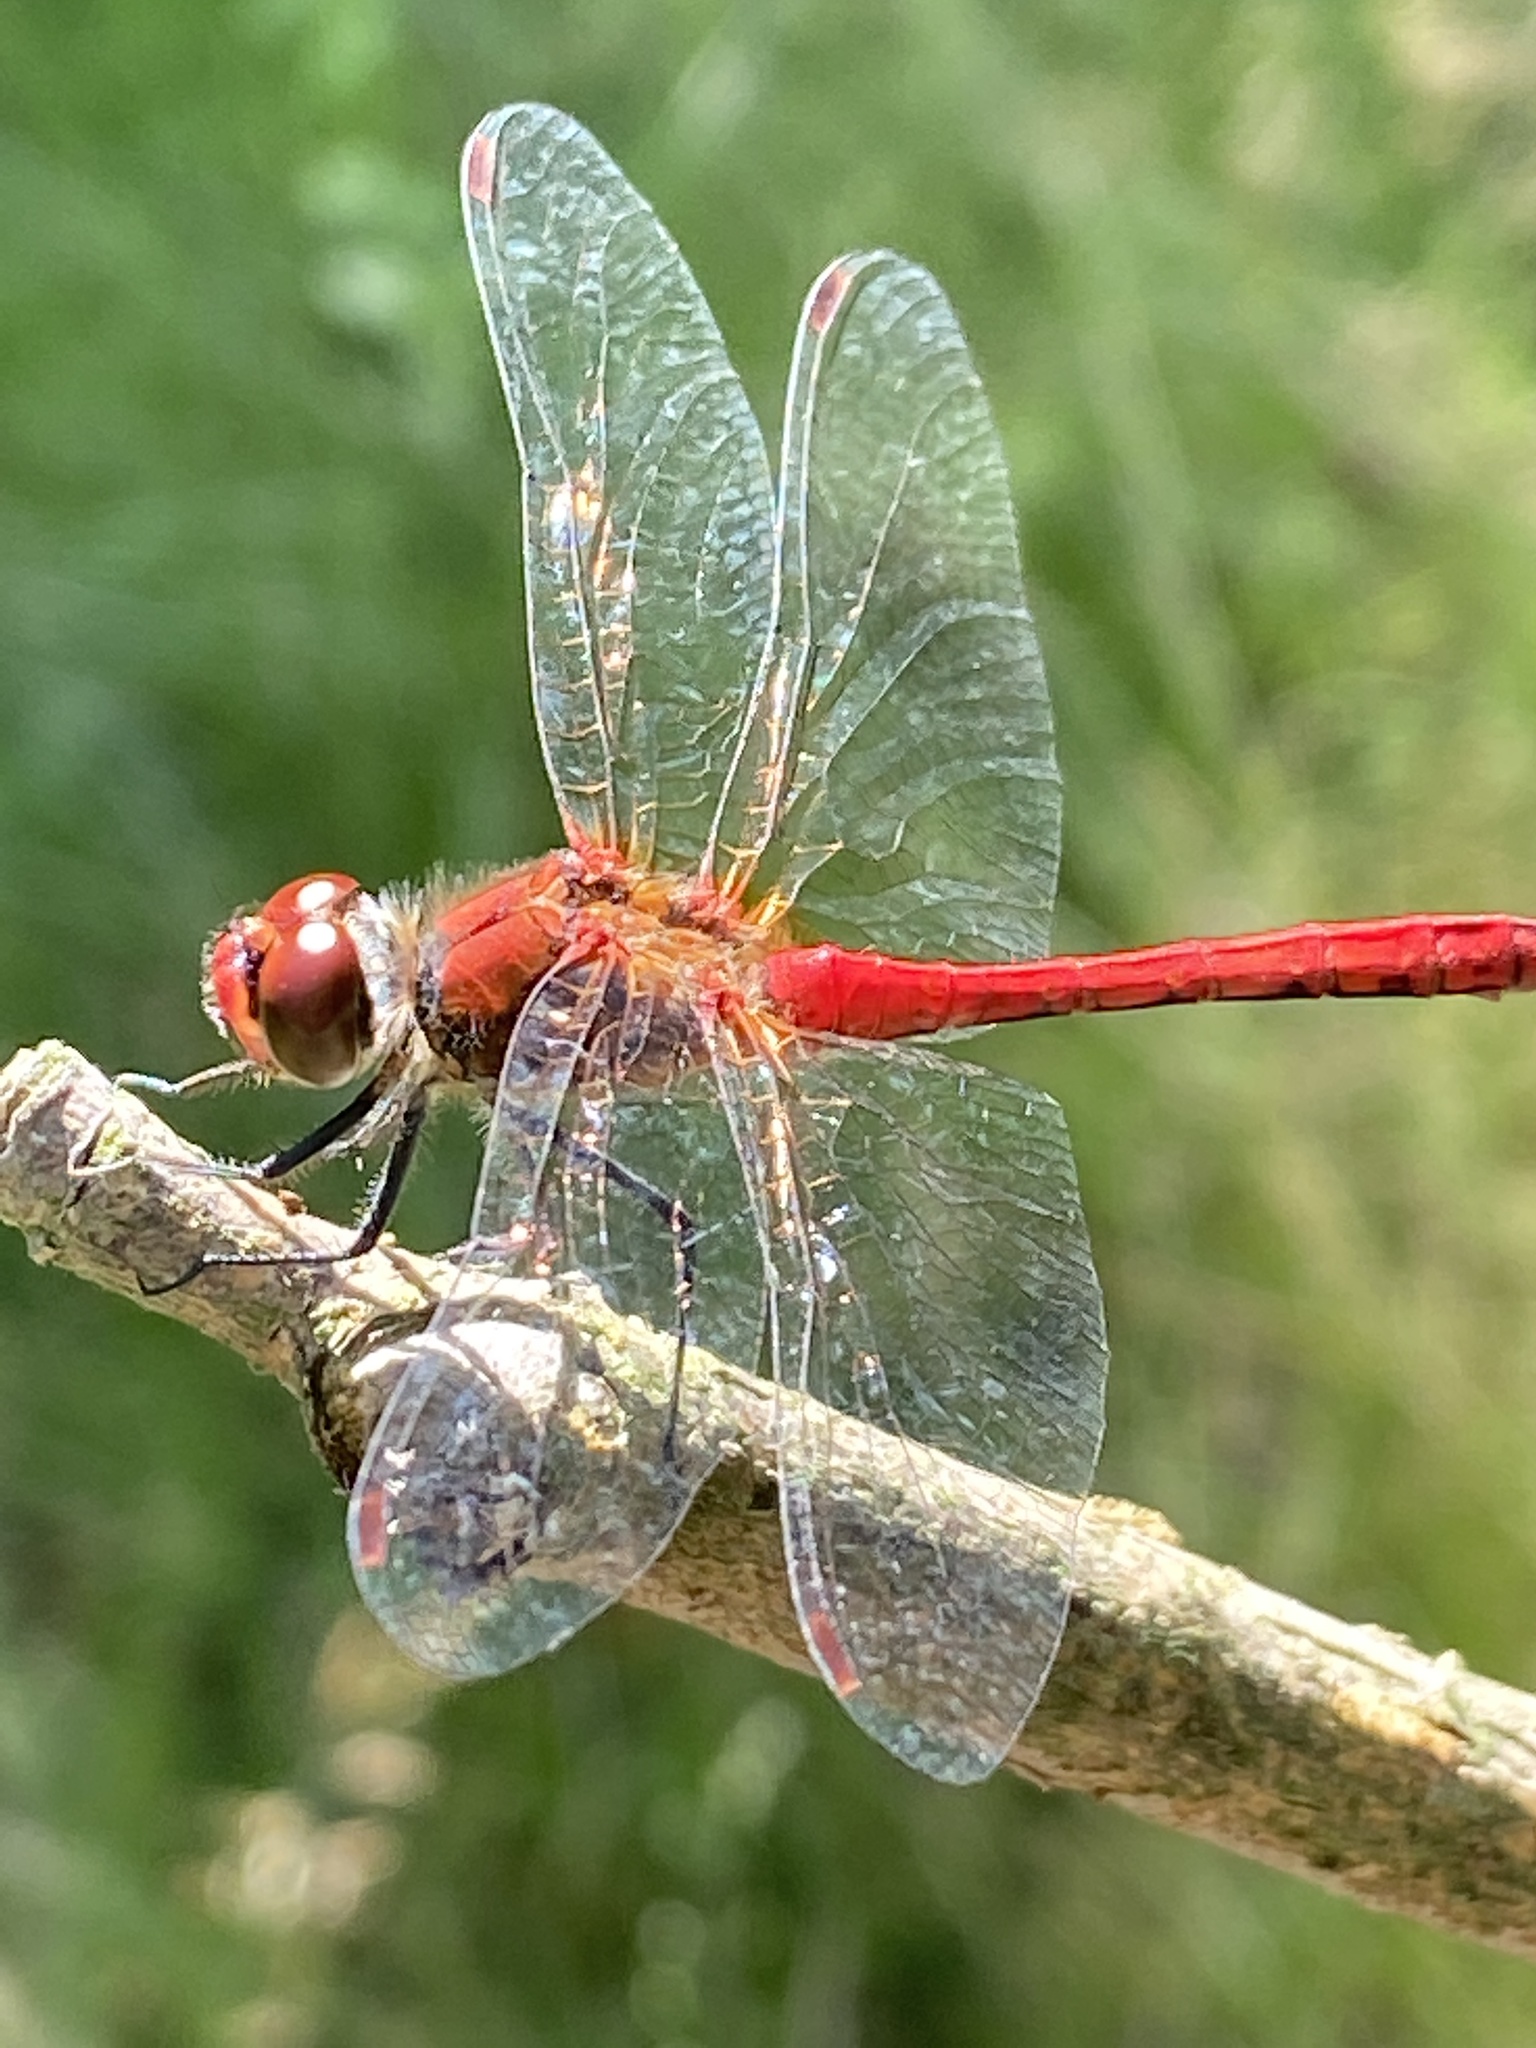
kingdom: Animalia
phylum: Arthropoda
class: Insecta
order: Odonata
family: Libellulidae
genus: Sympetrum
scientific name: Sympetrum sanguineum
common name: Ruddy darter
